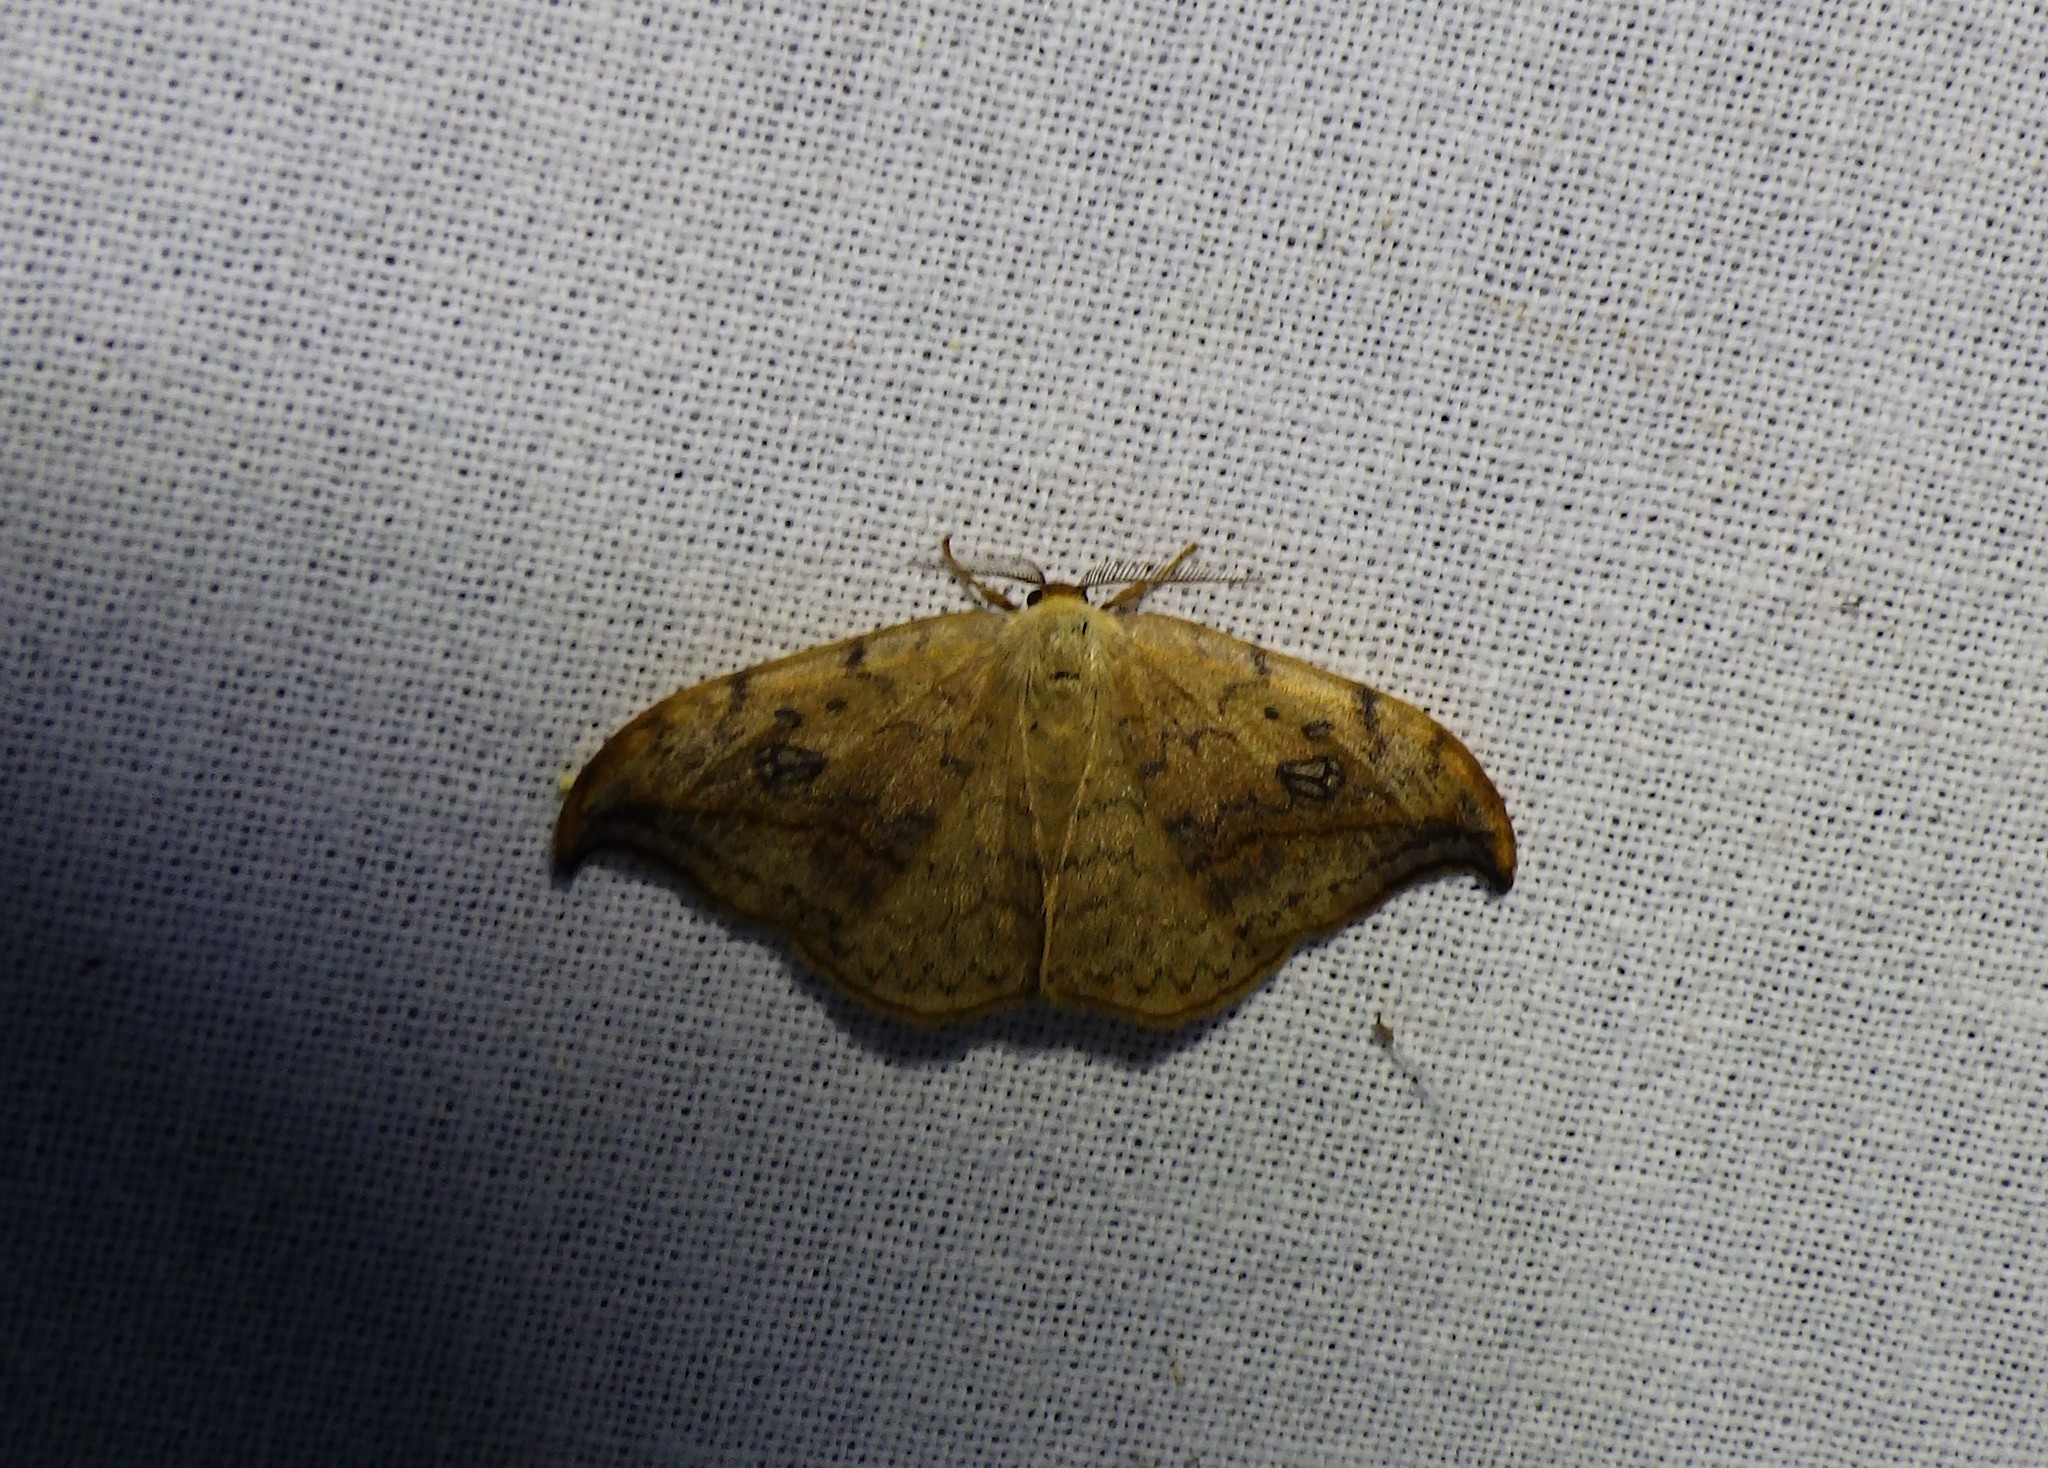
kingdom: Animalia
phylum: Arthropoda
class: Insecta
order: Lepidoptera
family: Drepanidae
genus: Drepana
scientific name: Drepana falcataria
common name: Pebble hook-tip
